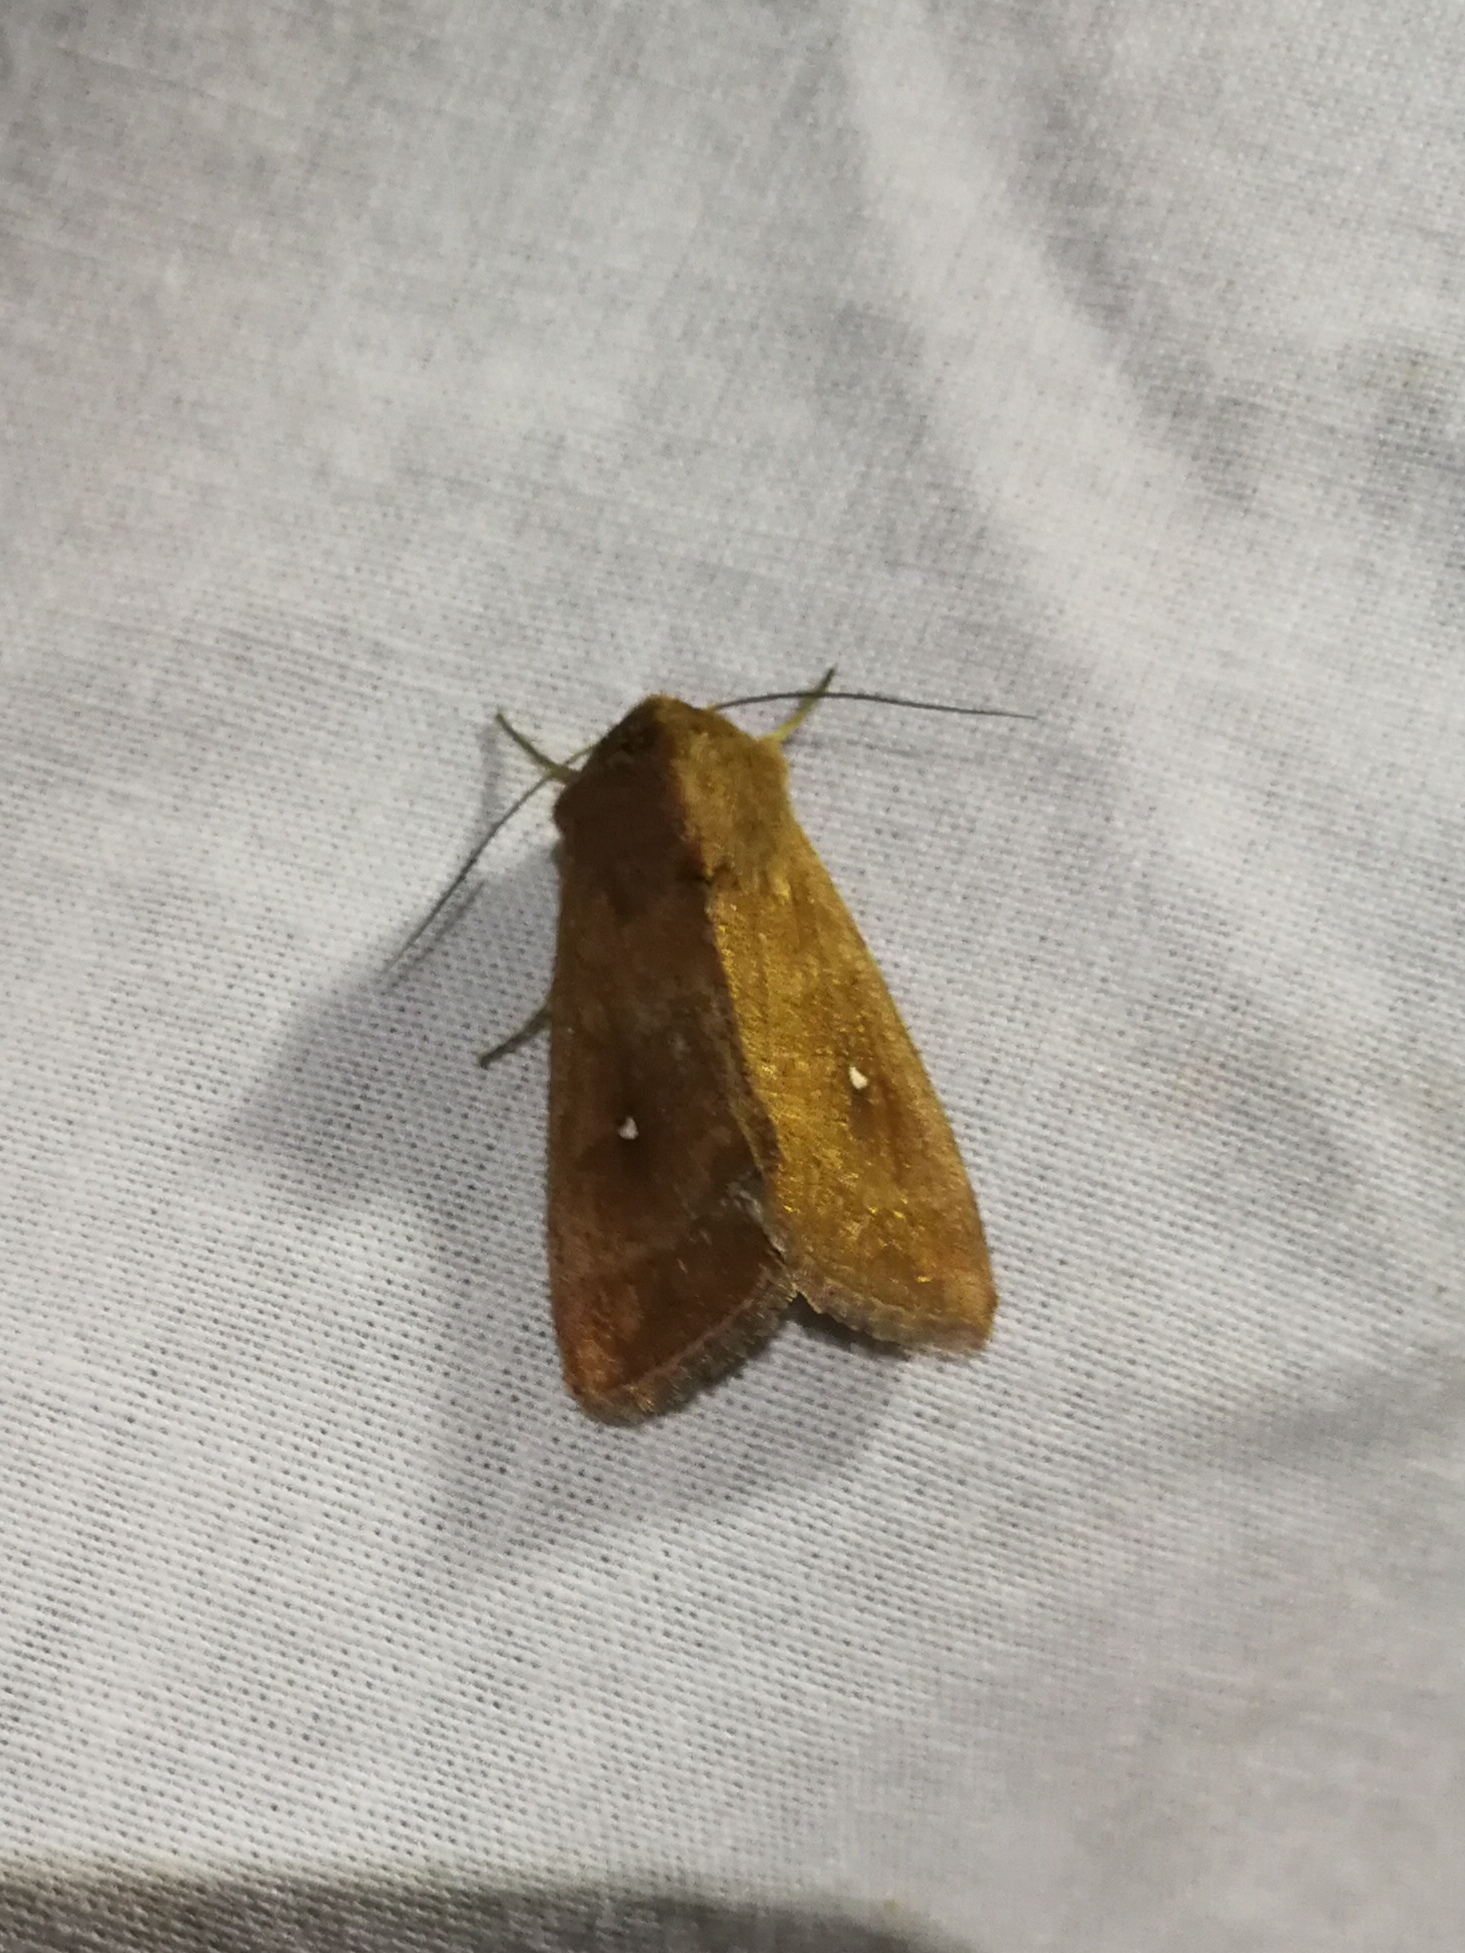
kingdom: Animalia
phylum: Arthropoda
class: Insecta
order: Lepidoptera
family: Noctuidae
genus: Mythimna
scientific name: Mythimna albipuncta
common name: White-point
